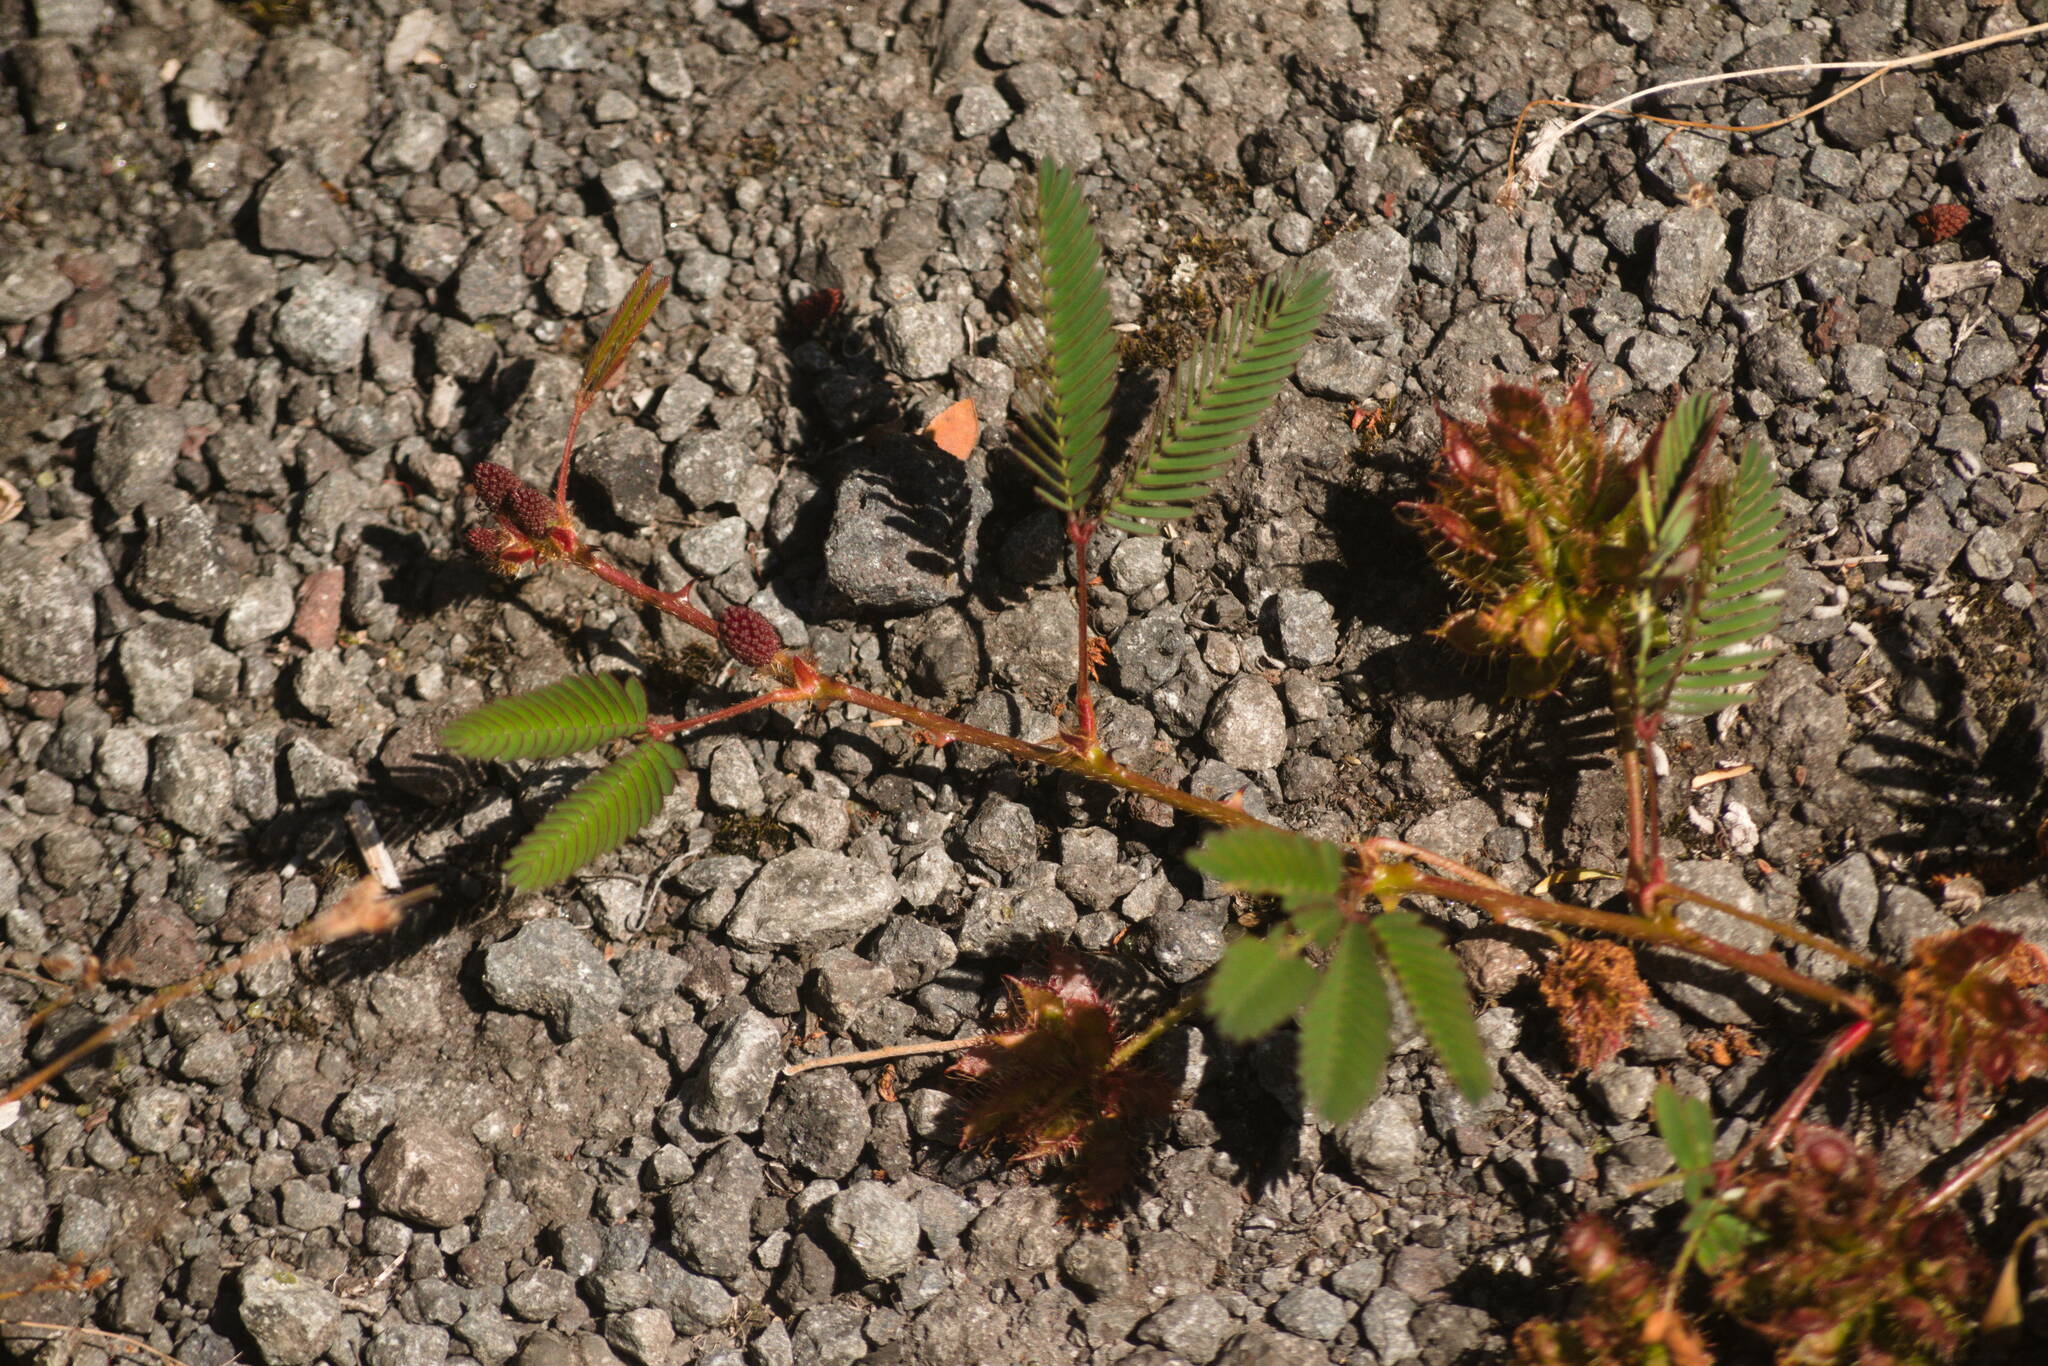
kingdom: Plantae
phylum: Tracheophyta
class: Magnoliopsida
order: Fabales
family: Fabaceae
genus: Mimosa
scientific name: Mimosa pudica
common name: Sensitive plant
